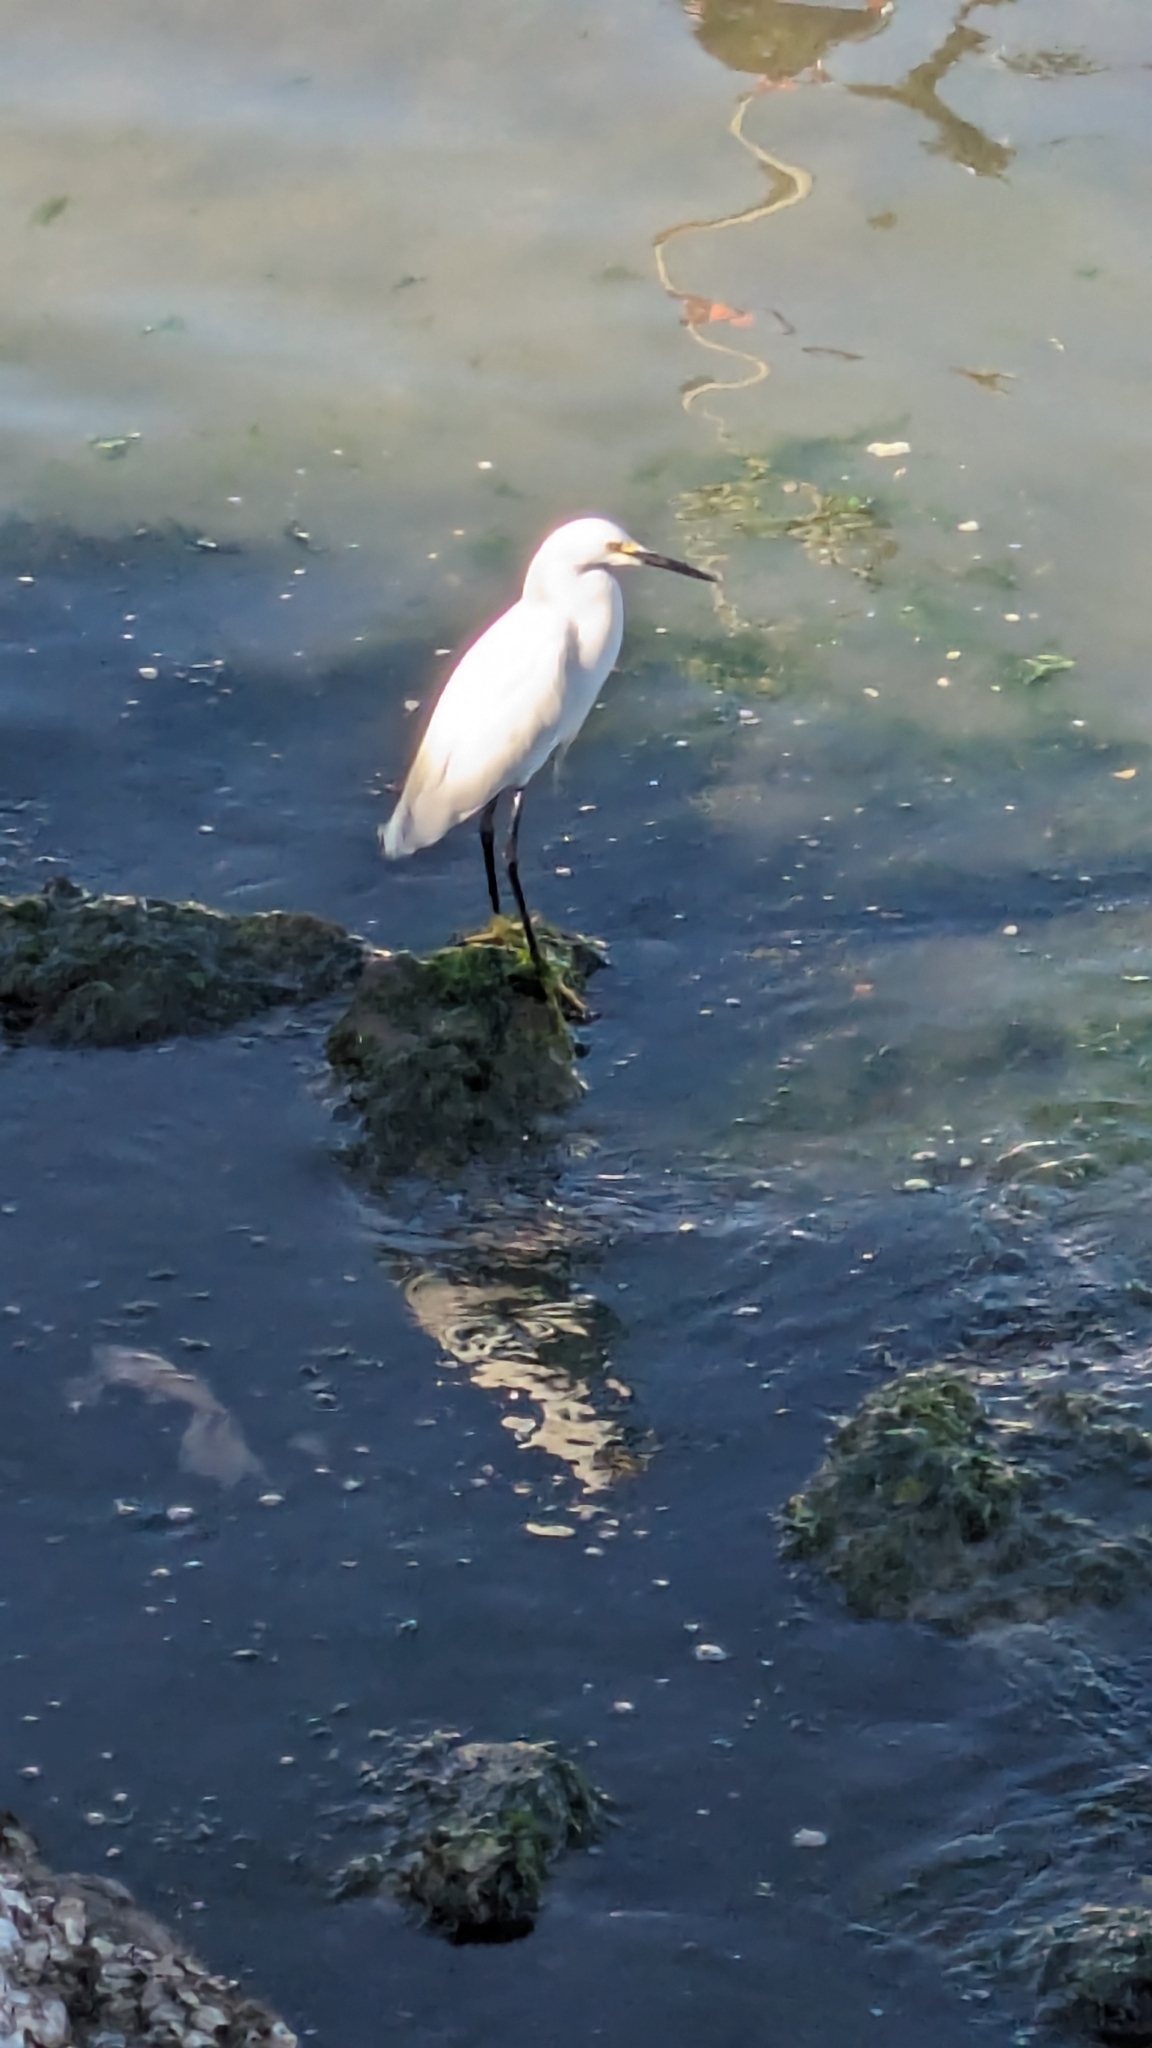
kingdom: Animalia
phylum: Chordata
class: Aves
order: Pelecaniformes
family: Ardeidae
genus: Egretta
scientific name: Egretta thula
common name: Snowy egret
